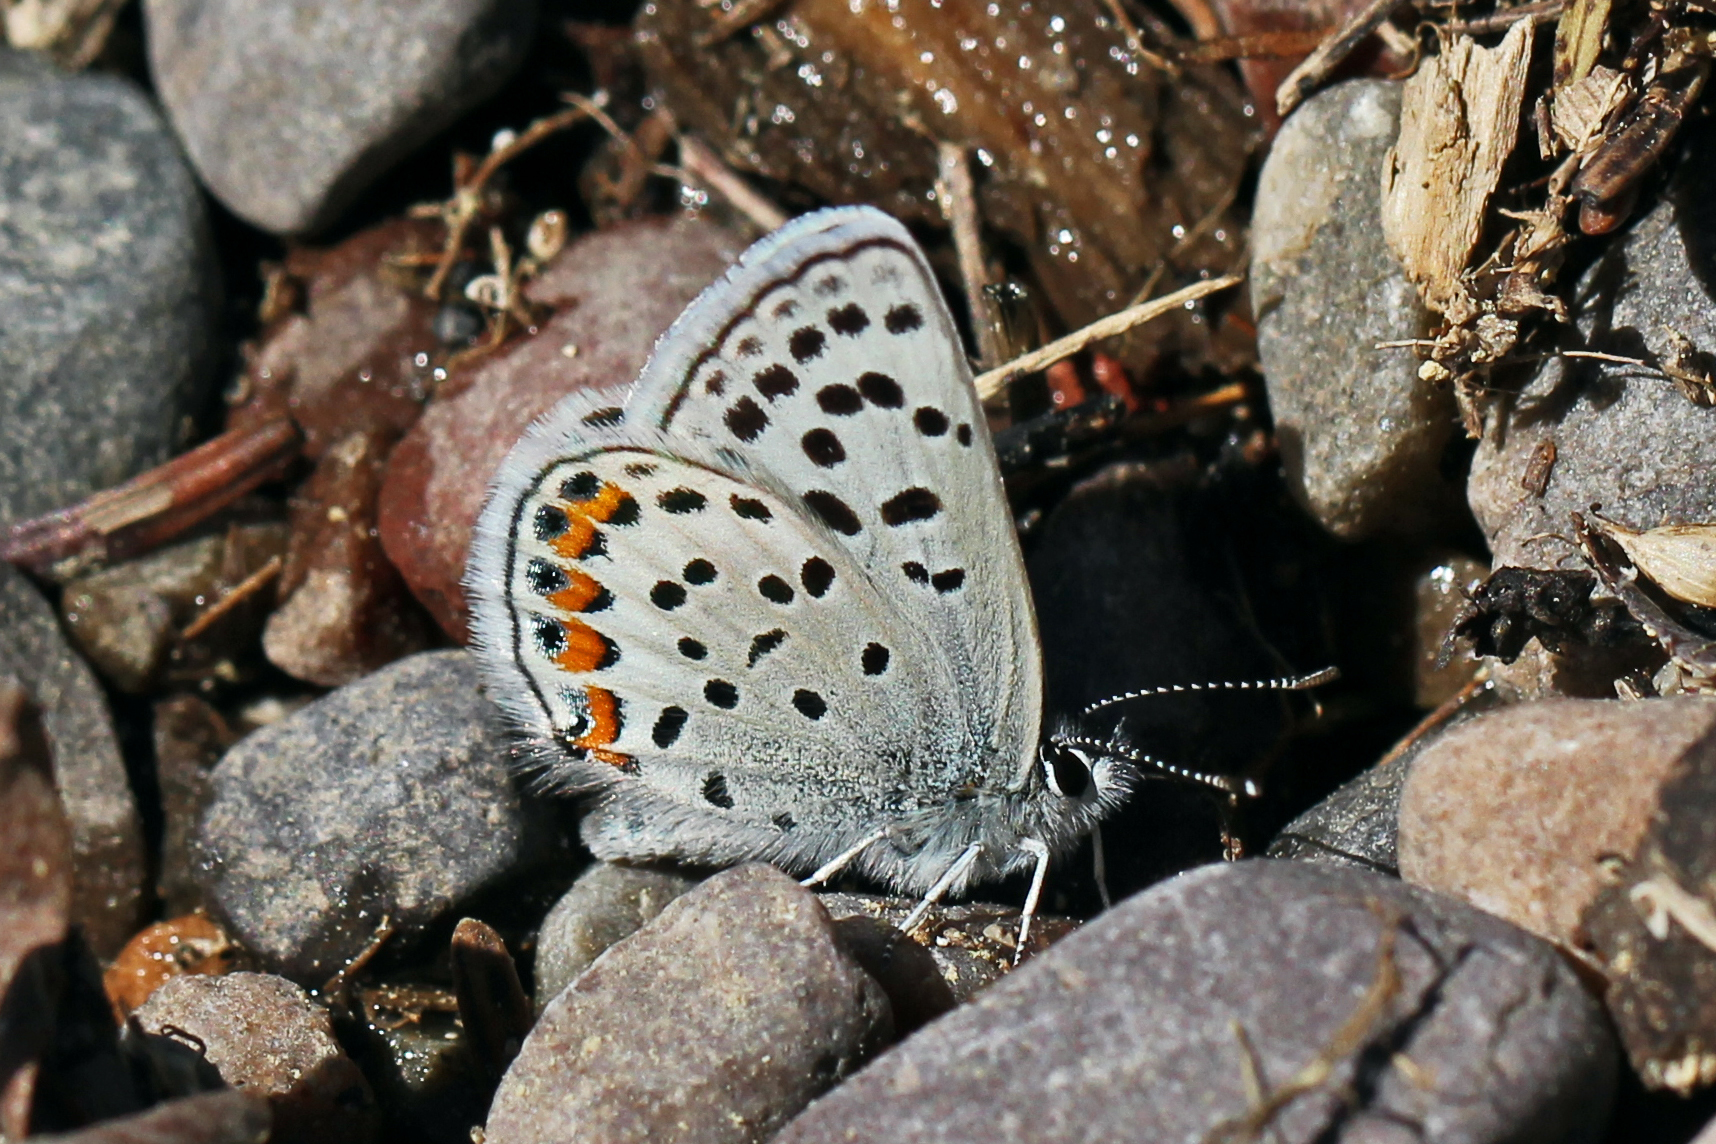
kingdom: Animalia
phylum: Arthropoda
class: Insecta
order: Lepidoptera
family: Lycaenidae
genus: Icaricia
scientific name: Icaricia lupini
